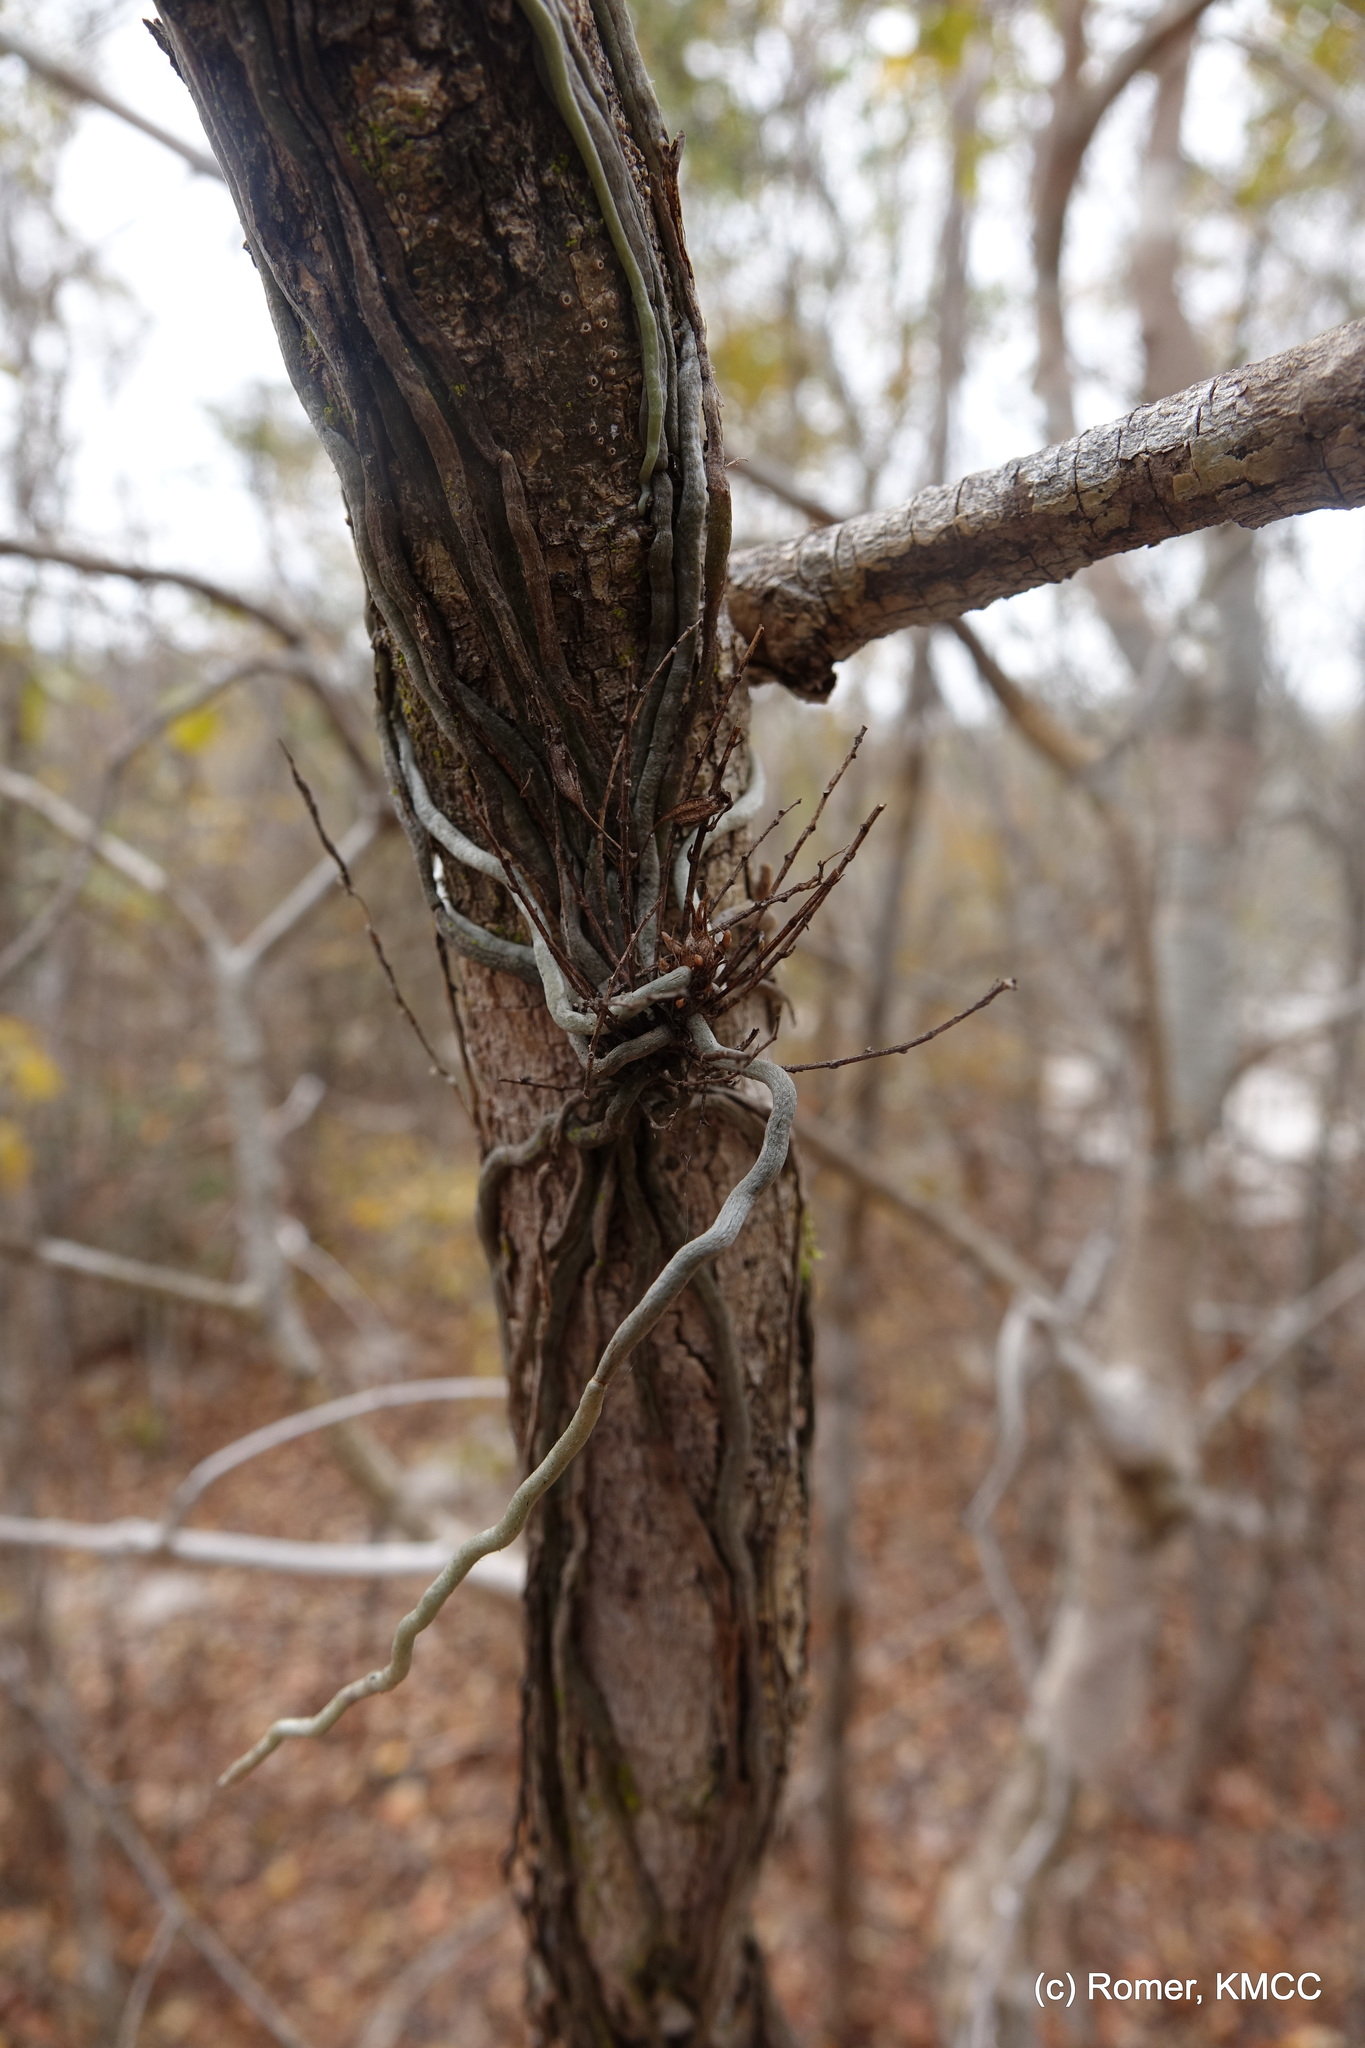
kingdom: Plantae
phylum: Tracheophyta
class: Liliopsida
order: Asparagales
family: Orchidaceae
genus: Microcoelia
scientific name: Microcoelia perrieri
